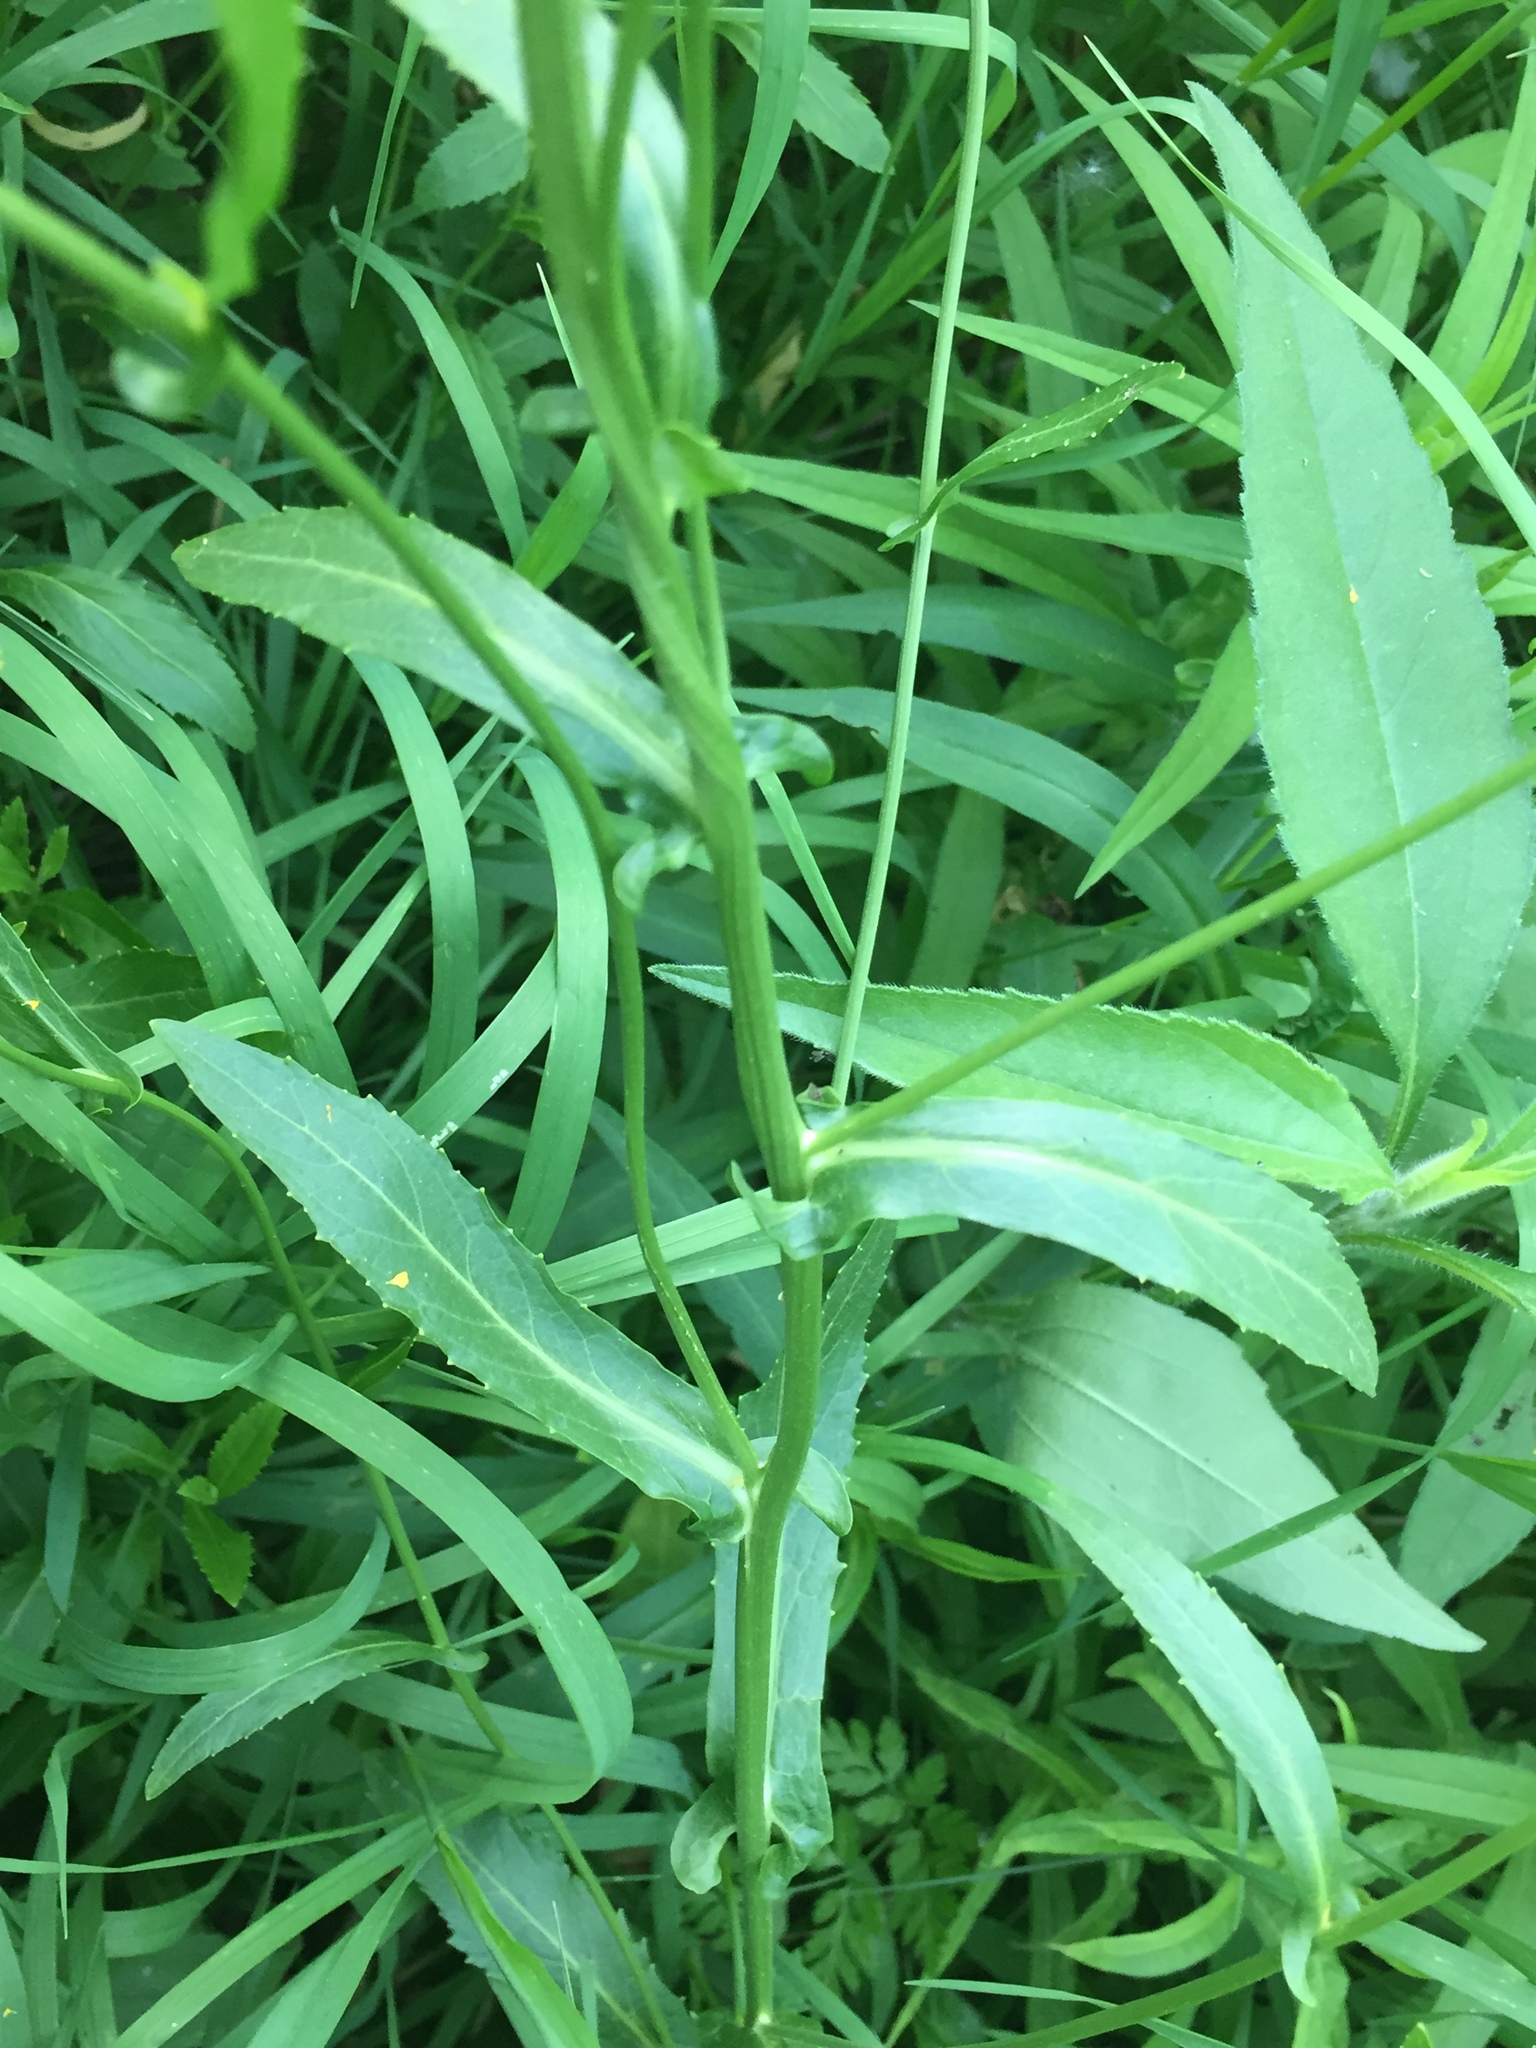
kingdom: Plantae
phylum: Tracheophyta
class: Magnoliopsida
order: Brassicales
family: Brassicaceae
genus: Isatis
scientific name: Isatis tinctoria
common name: Woad
